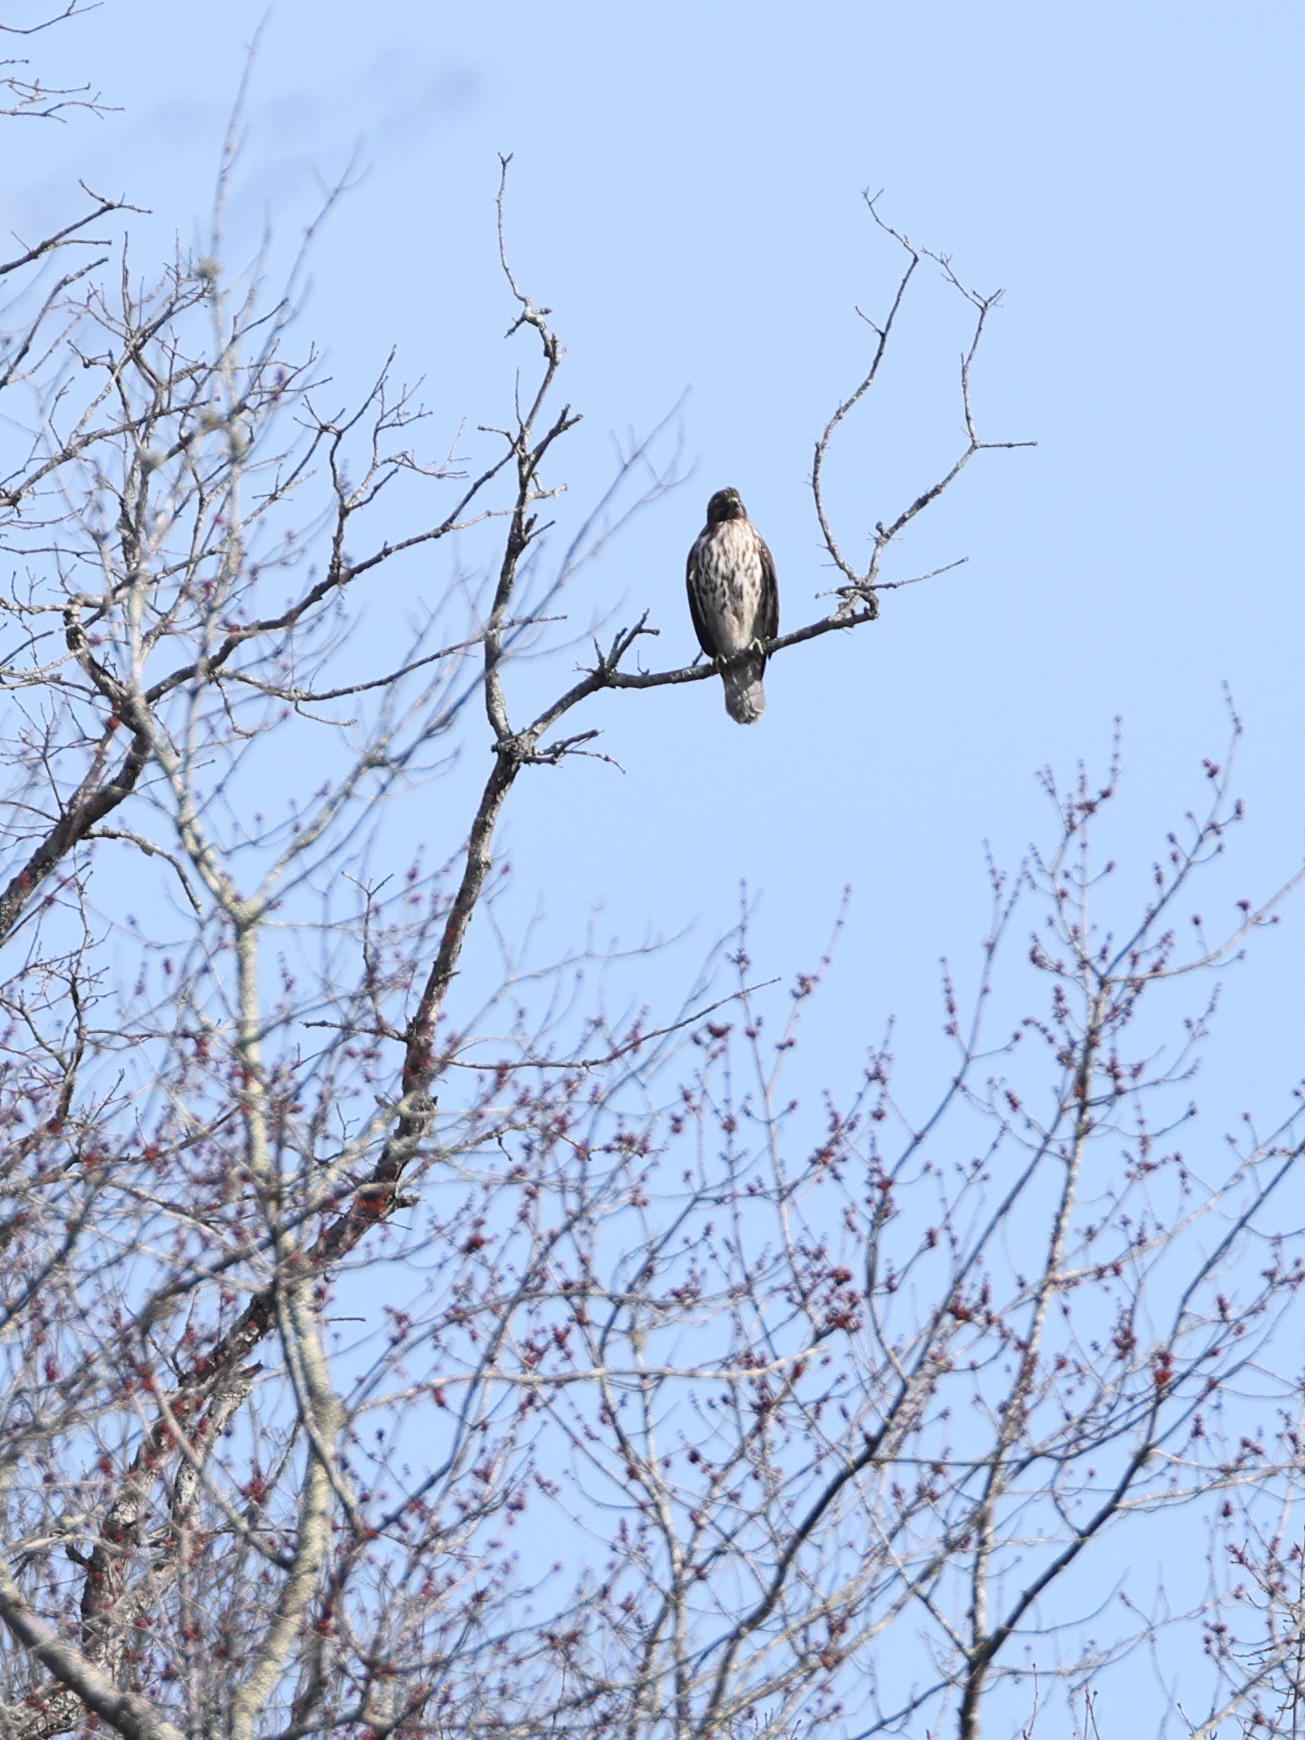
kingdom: Animalia
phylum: Chordata
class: Aves
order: Accipitriformes
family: Accipitridae
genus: Buteo
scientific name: Buteo jamaicensis
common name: Red-tailed hawk
